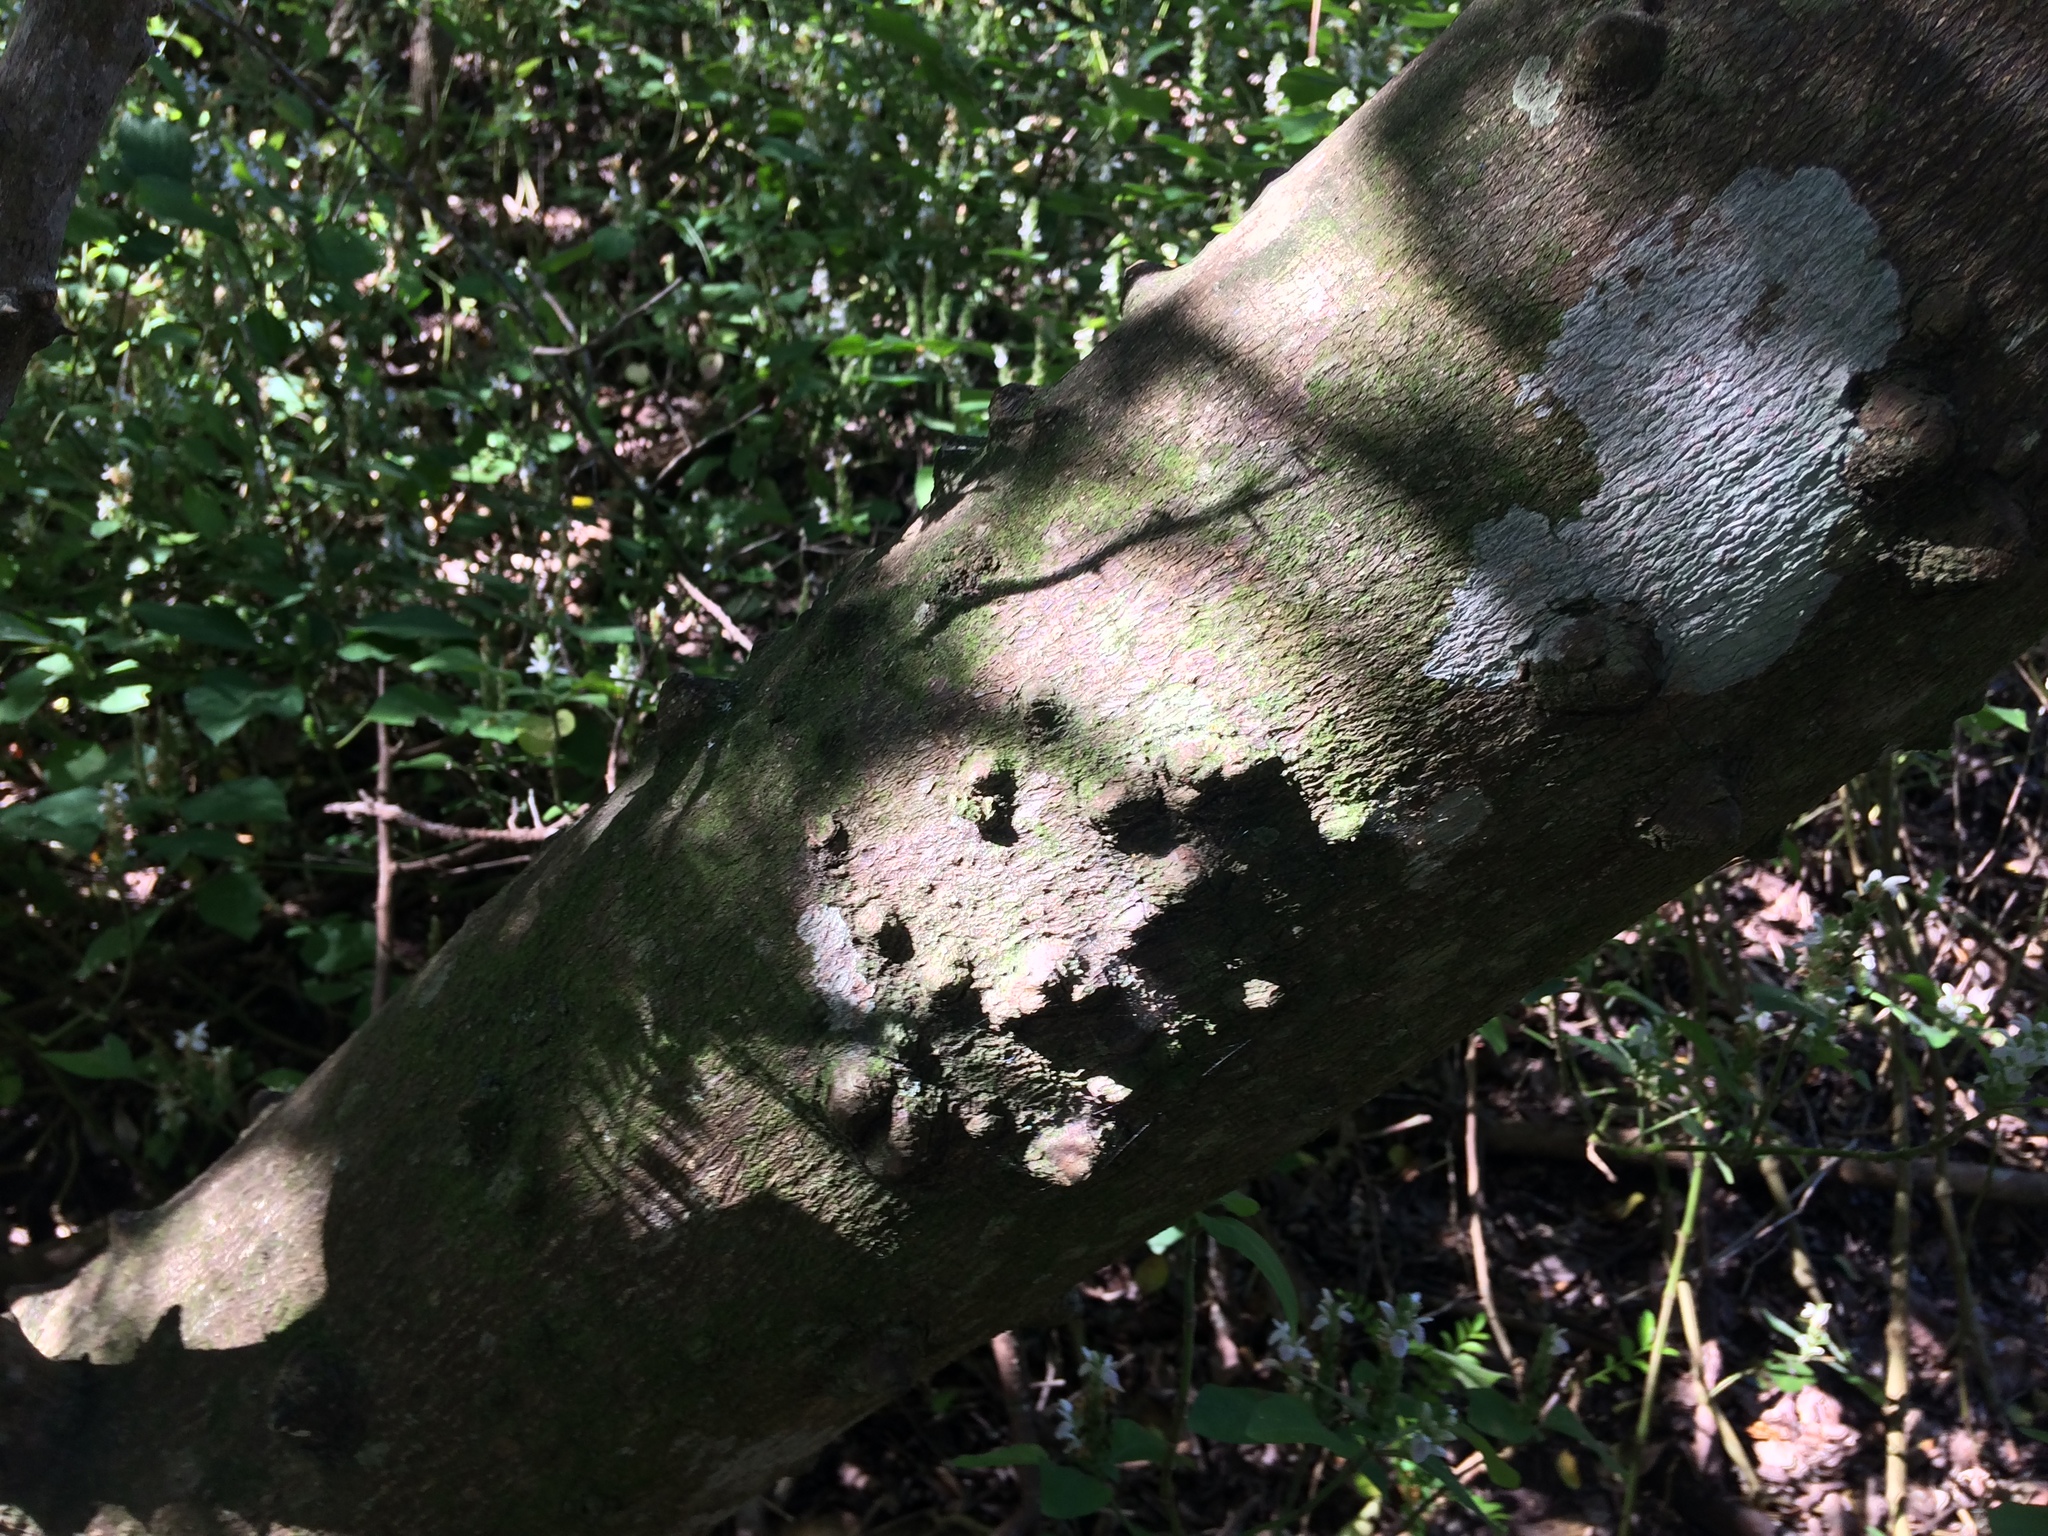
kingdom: Plantae
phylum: Tracheophyta
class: Magnoliopsida
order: Sapindales
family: Rutaceae
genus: Zanthoxylum
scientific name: Zanthoxylum capense
